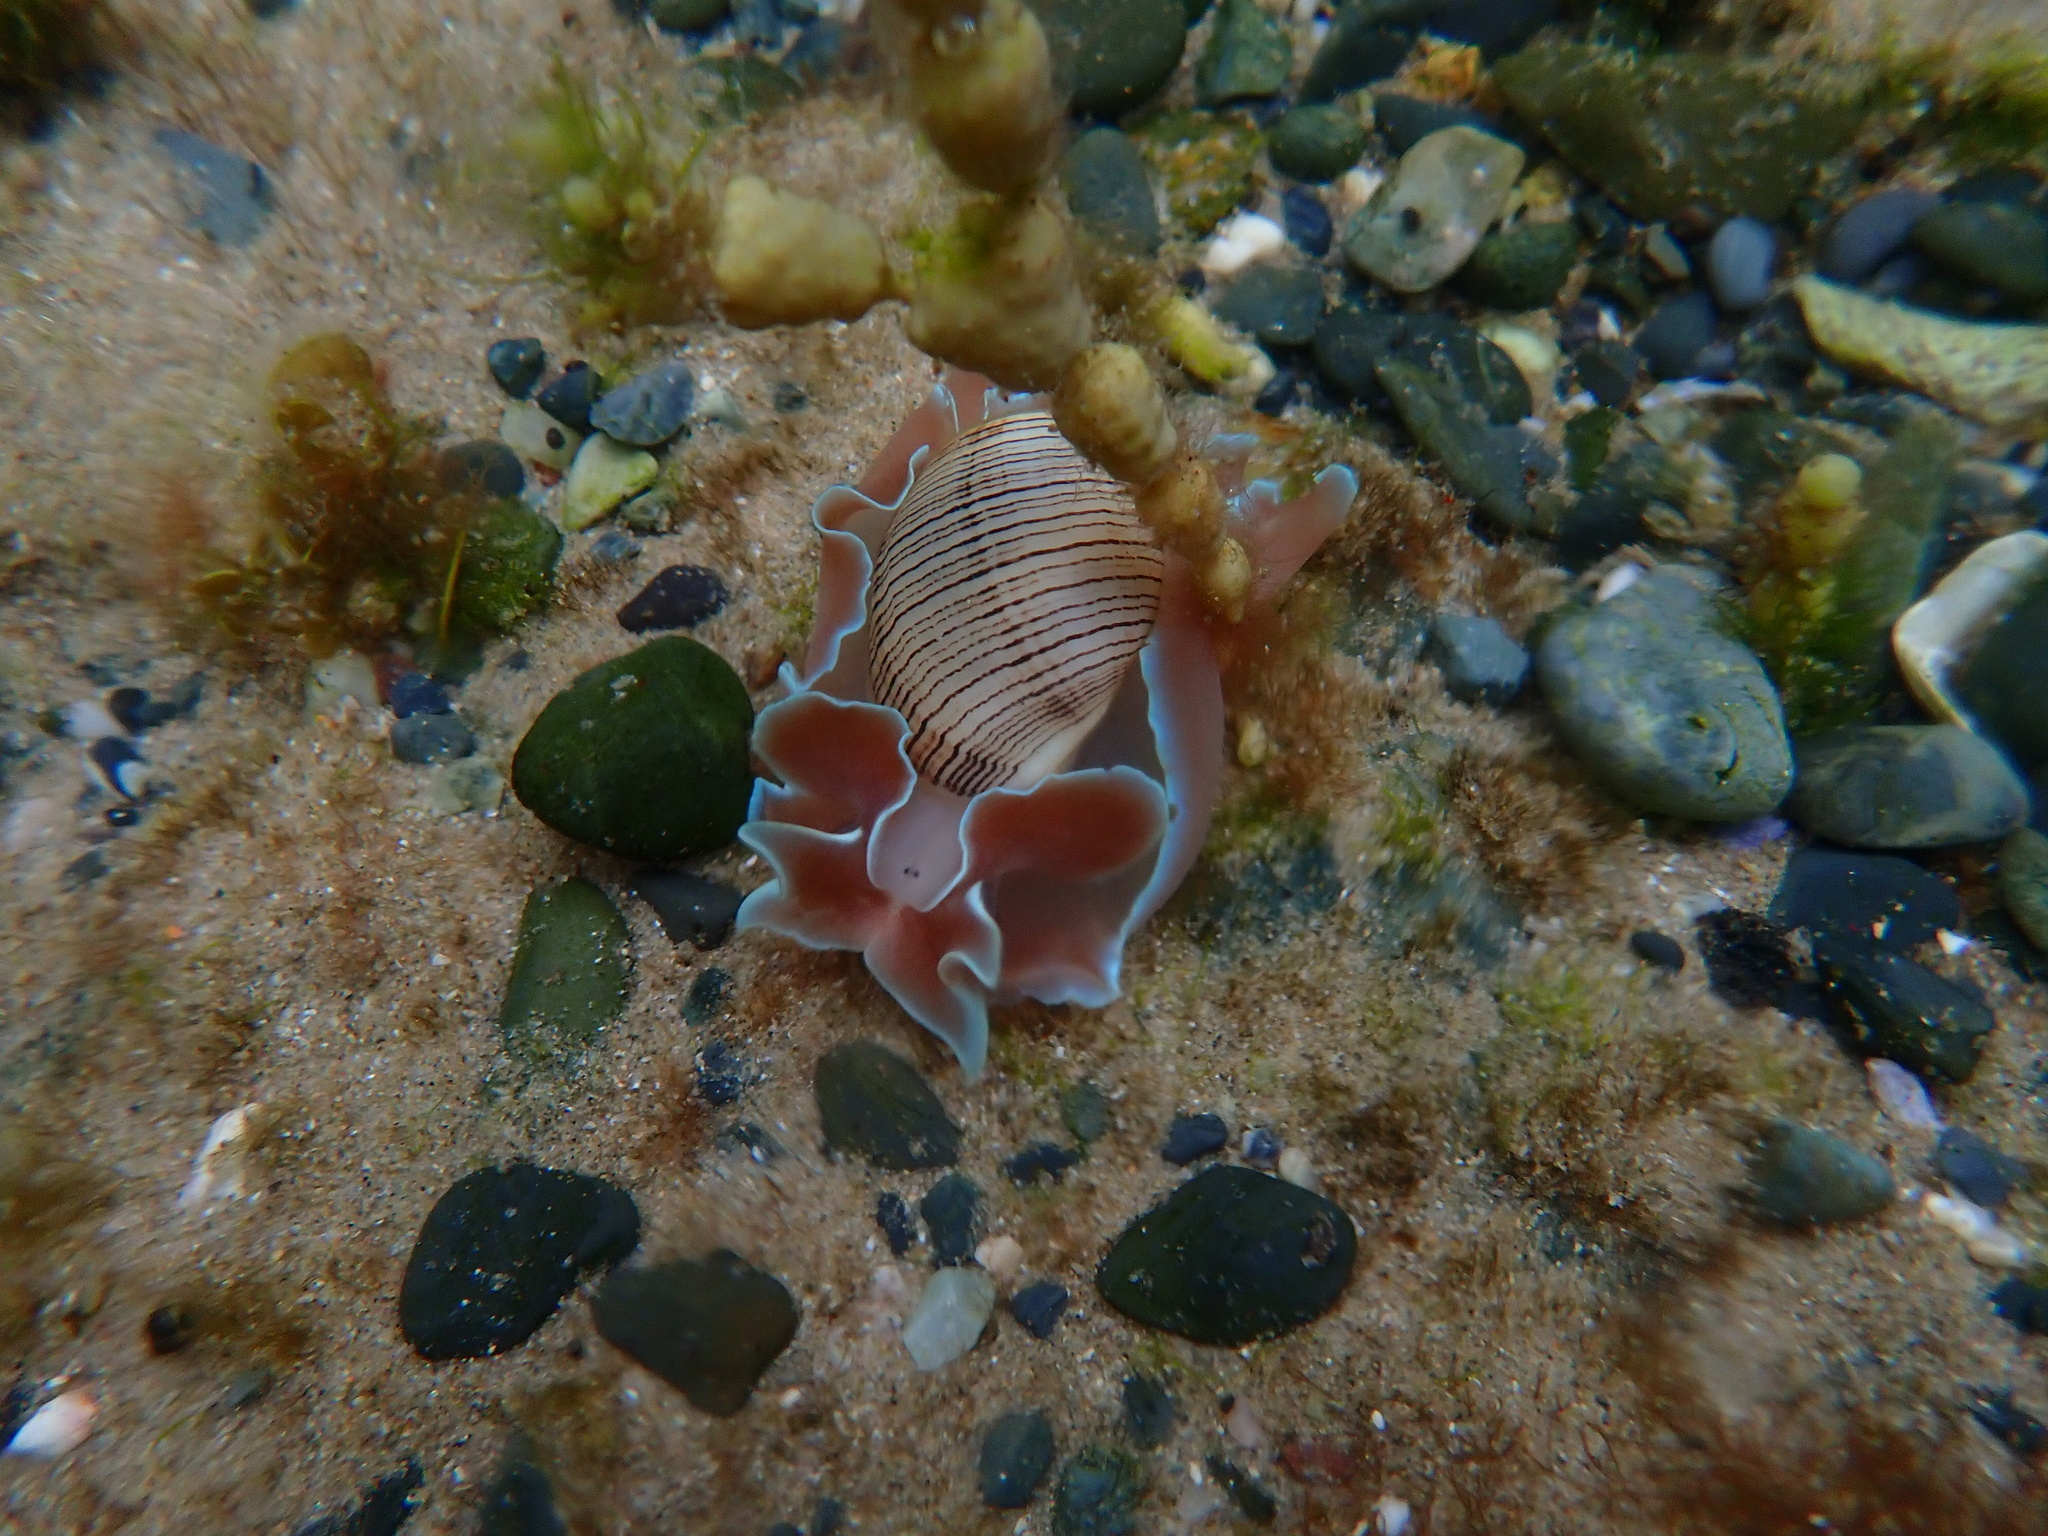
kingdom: Animalia
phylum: Mollusca
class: Gastropoda
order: Cephalaspidea
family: Aplustridae
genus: Hydatina
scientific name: Hydatina physis
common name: Brown-line paperbubble
